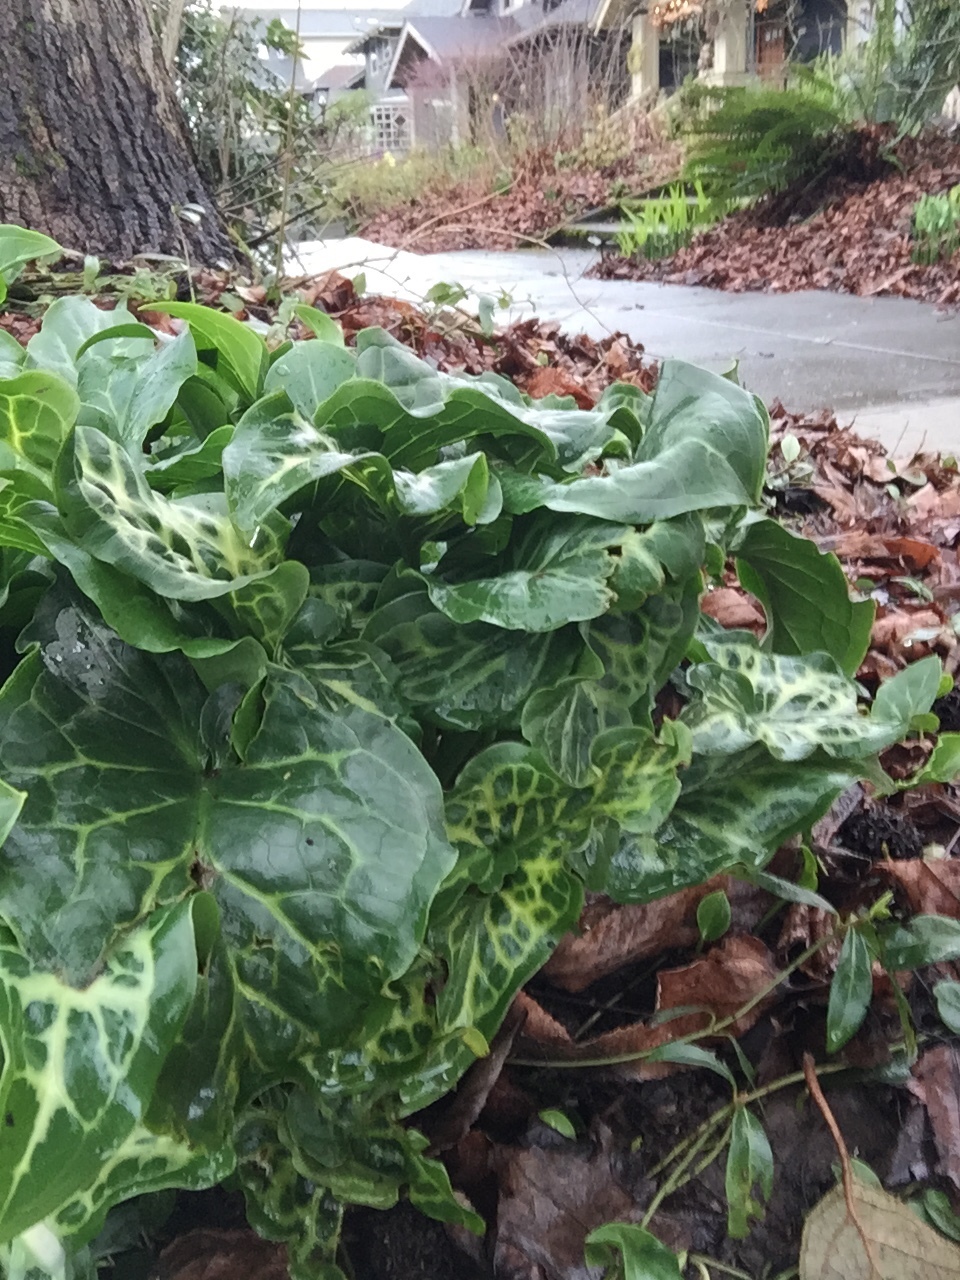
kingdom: Plantae
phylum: Tracheophyta
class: Liliopsida
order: Alismatales
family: Araceae
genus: Arum
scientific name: Arum italicum
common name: Italian lords-and-ladies
